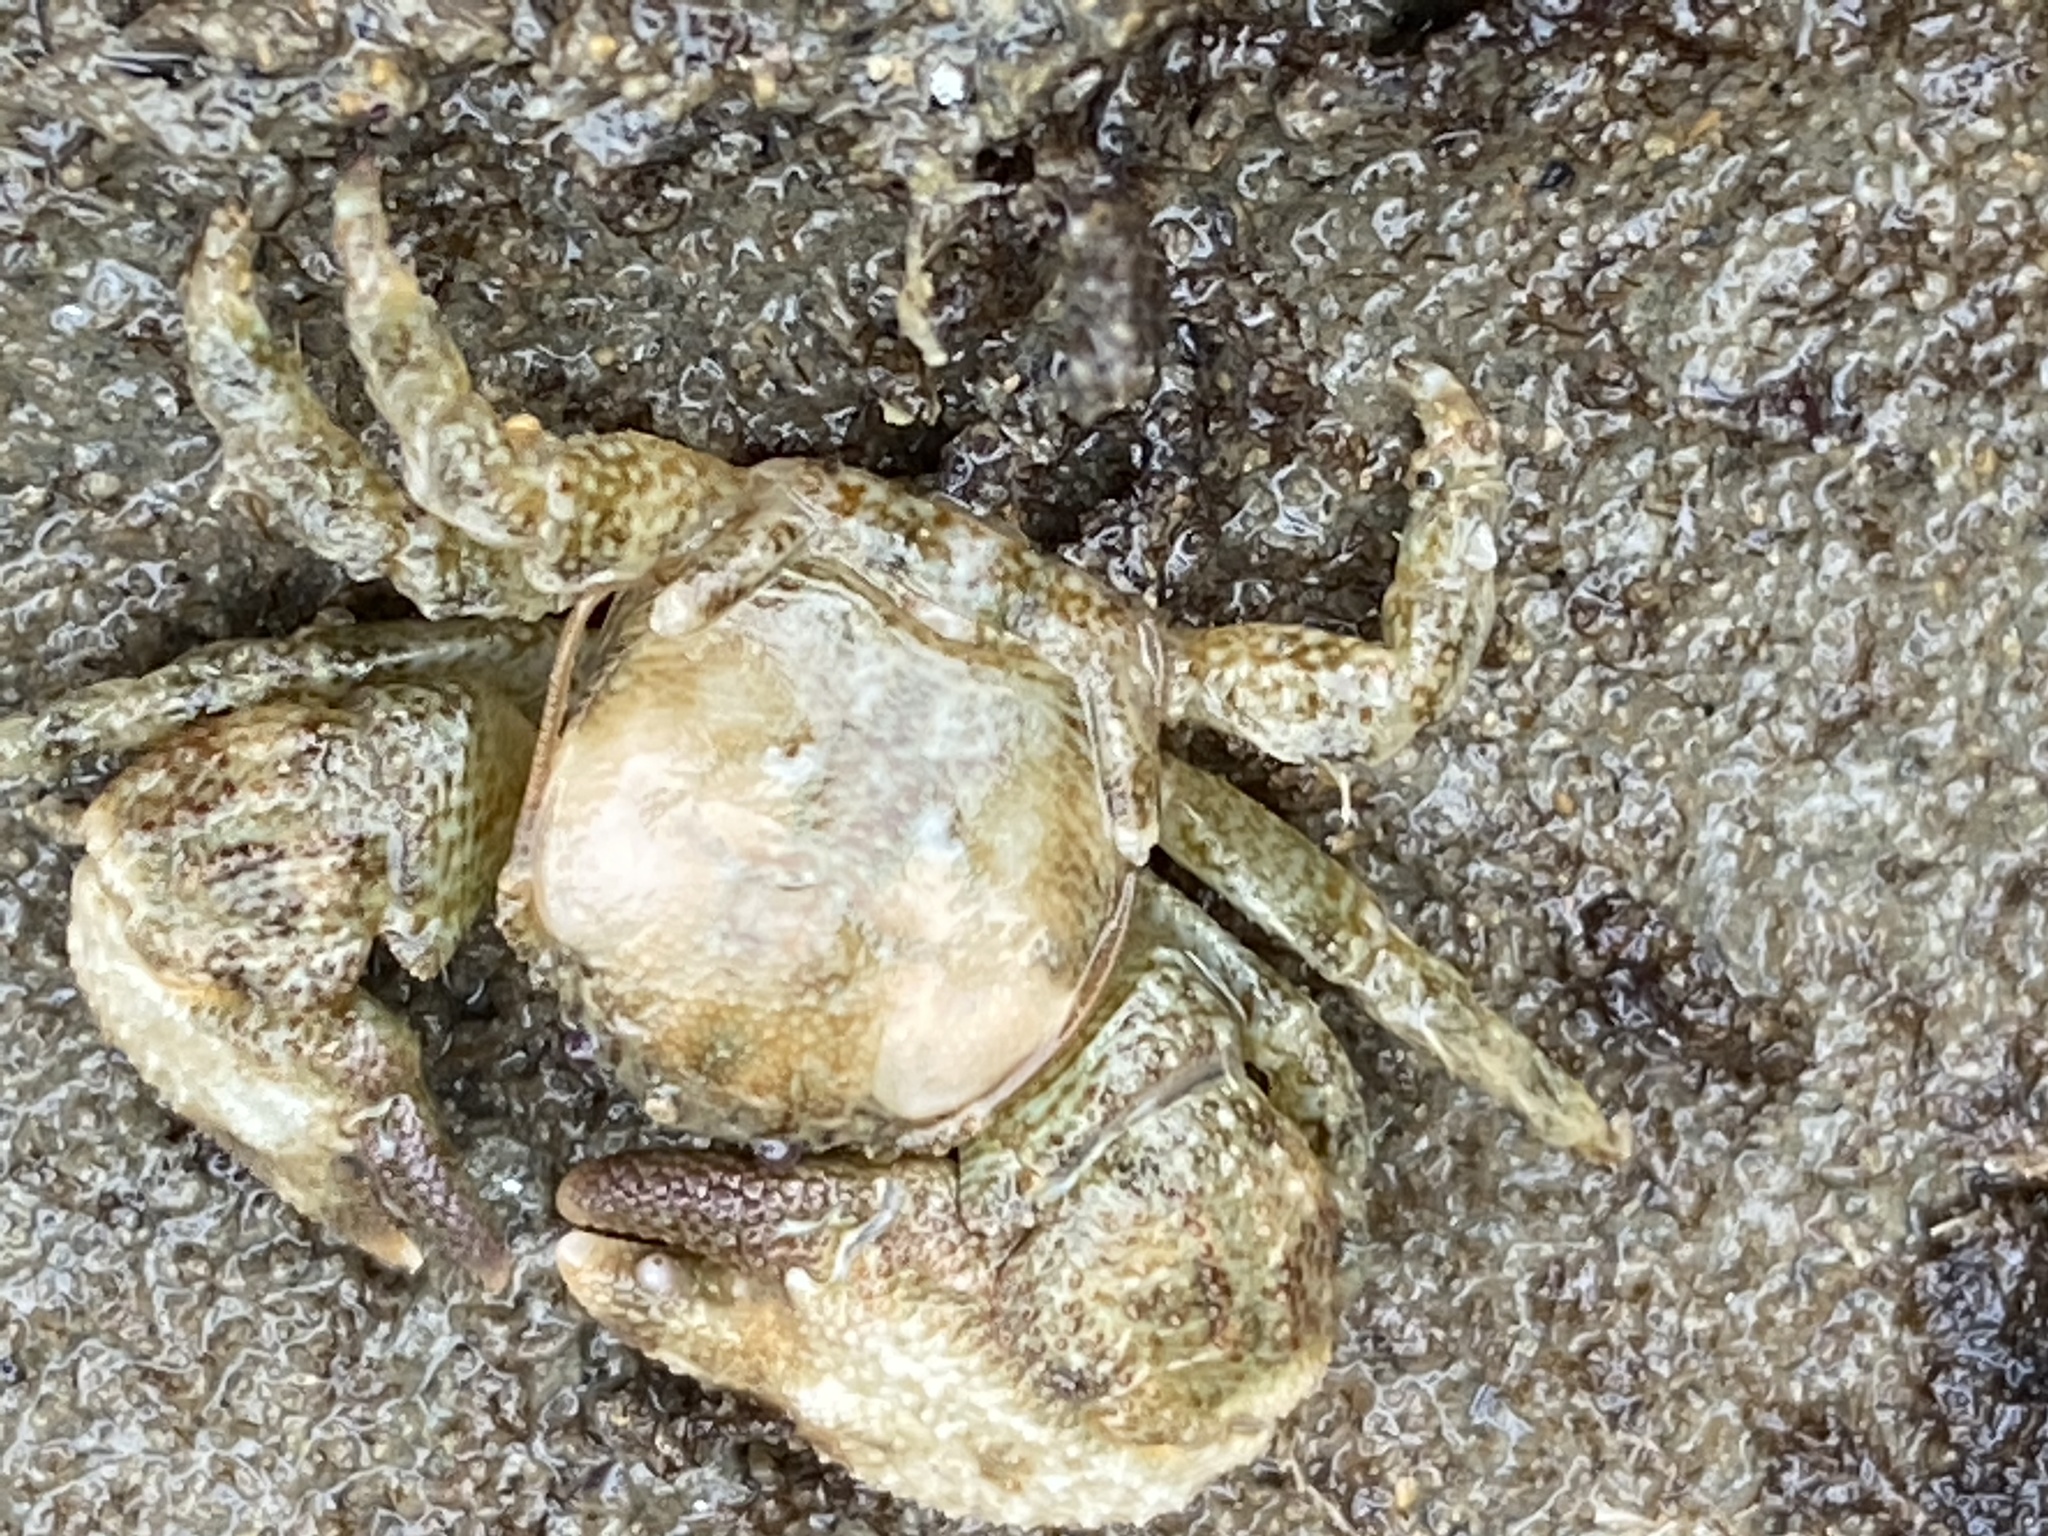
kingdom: Animalia
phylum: Arthropoda
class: Malacostraca
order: Decapoda
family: Porcellanidae
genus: Pachycheles
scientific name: Pachycheles rudis
